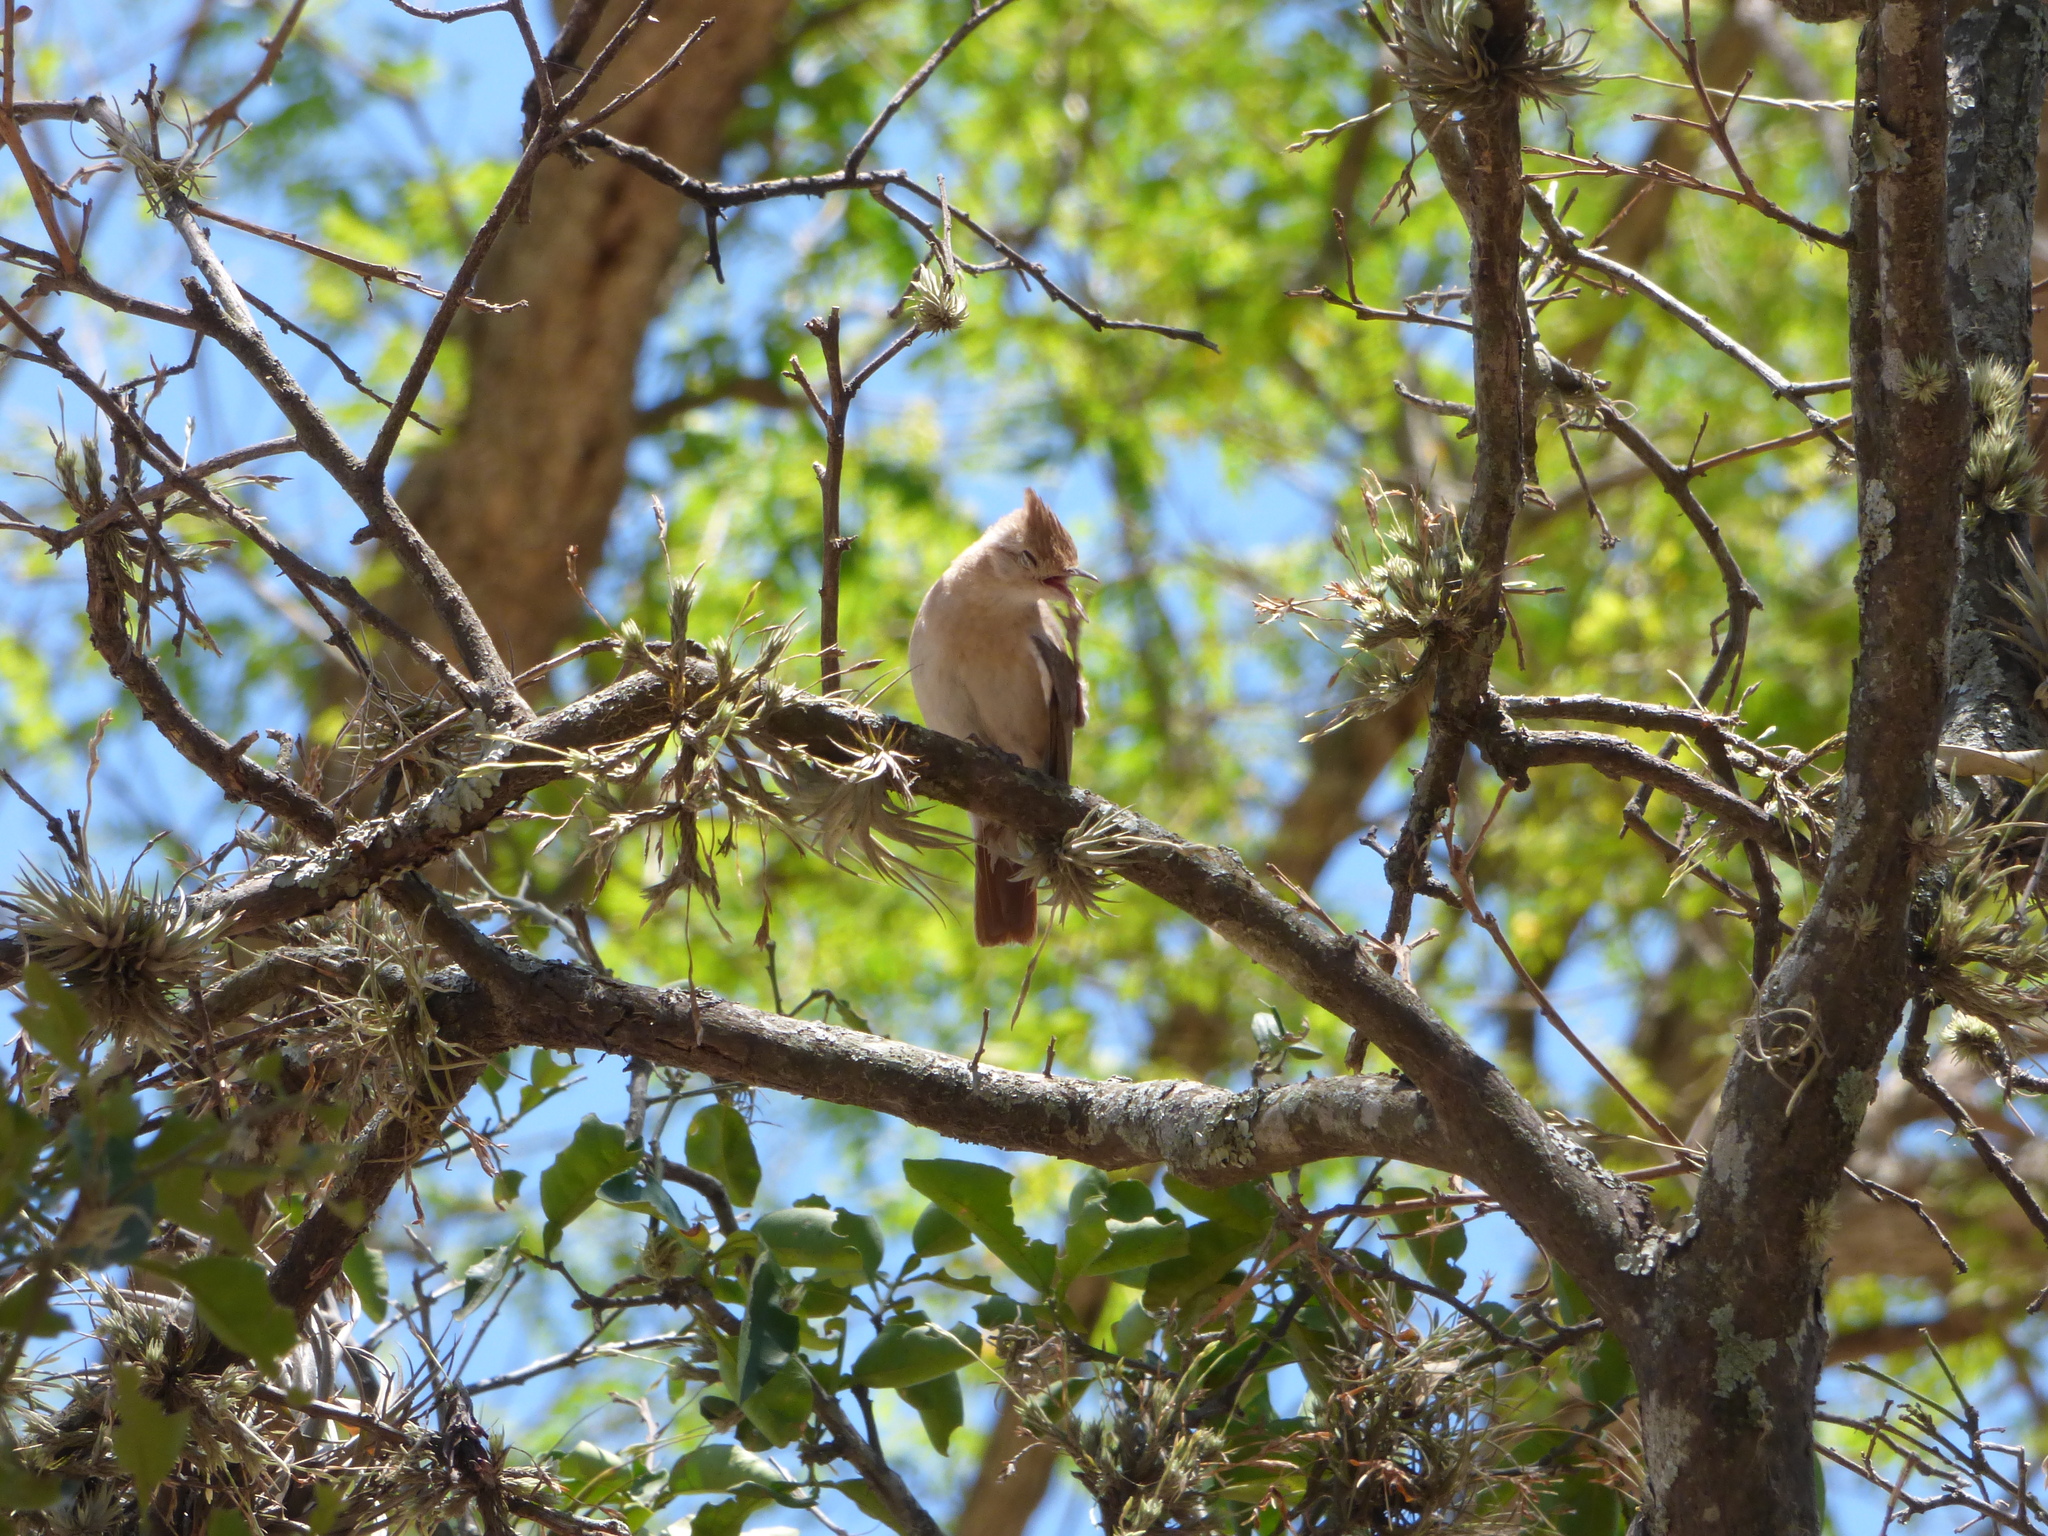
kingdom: Animalia
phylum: Chordata
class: Aves
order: Passeriformes
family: Furnariidae
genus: Furnarius
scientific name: Furnarius cristatus
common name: Crested hornero
